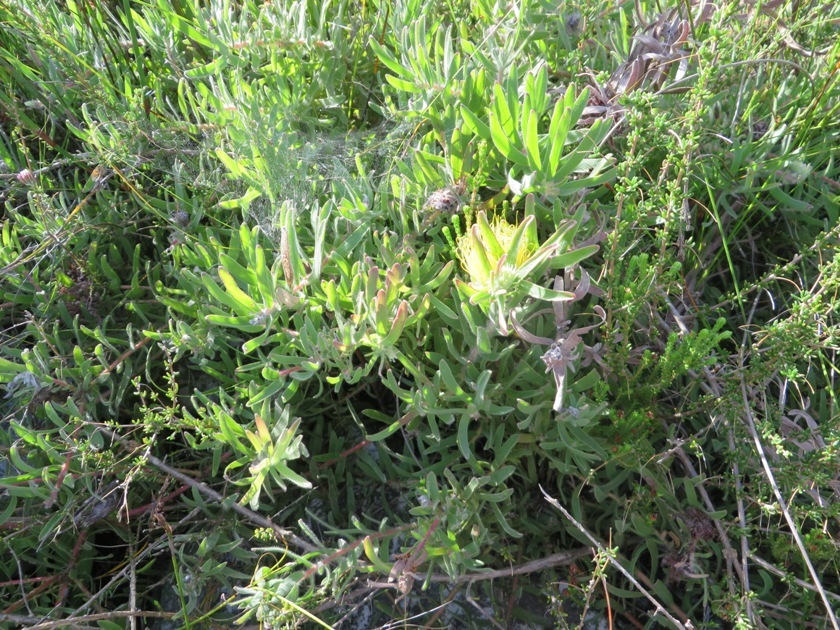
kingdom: Plantae
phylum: Tracheophyta
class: Magnoliopsida
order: Proteales
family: Proteaceae
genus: Leucospermum
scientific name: Leucospermum gracile
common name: Hermanus pincushion
